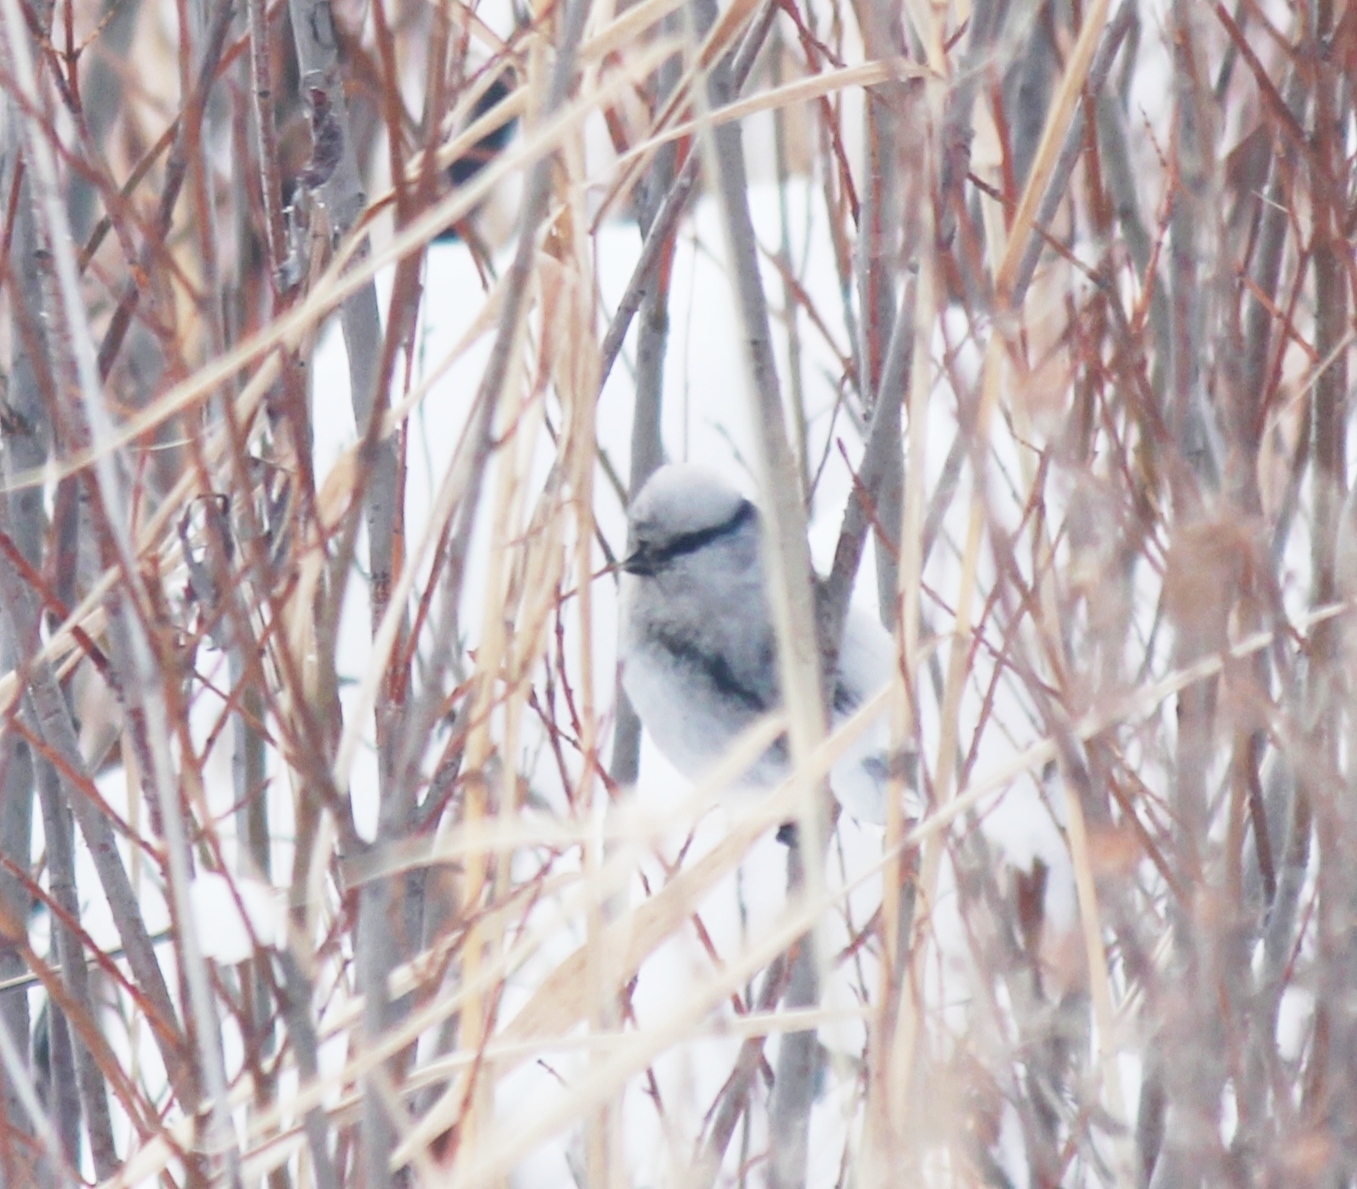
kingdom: Animalia
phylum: Chordata
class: Aves
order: Passeriformes
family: Paridae
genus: Cyanistes
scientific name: Cyanistes cyanus
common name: Azure tit
